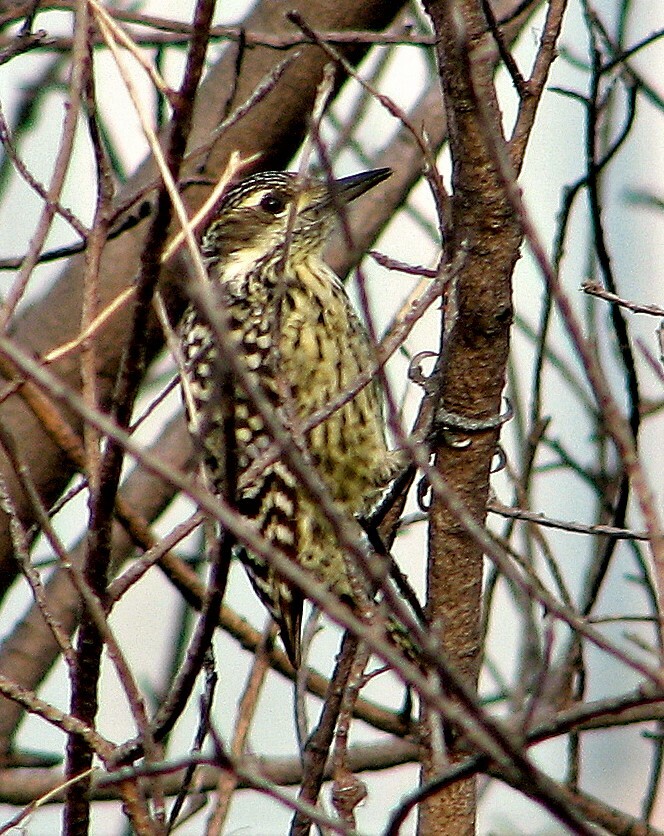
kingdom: Animalia
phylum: Chordata
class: Aves
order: Piciformes
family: Picidae
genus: Veniliornis
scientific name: Veniliornis mixtus
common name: Checkered woodpecker
